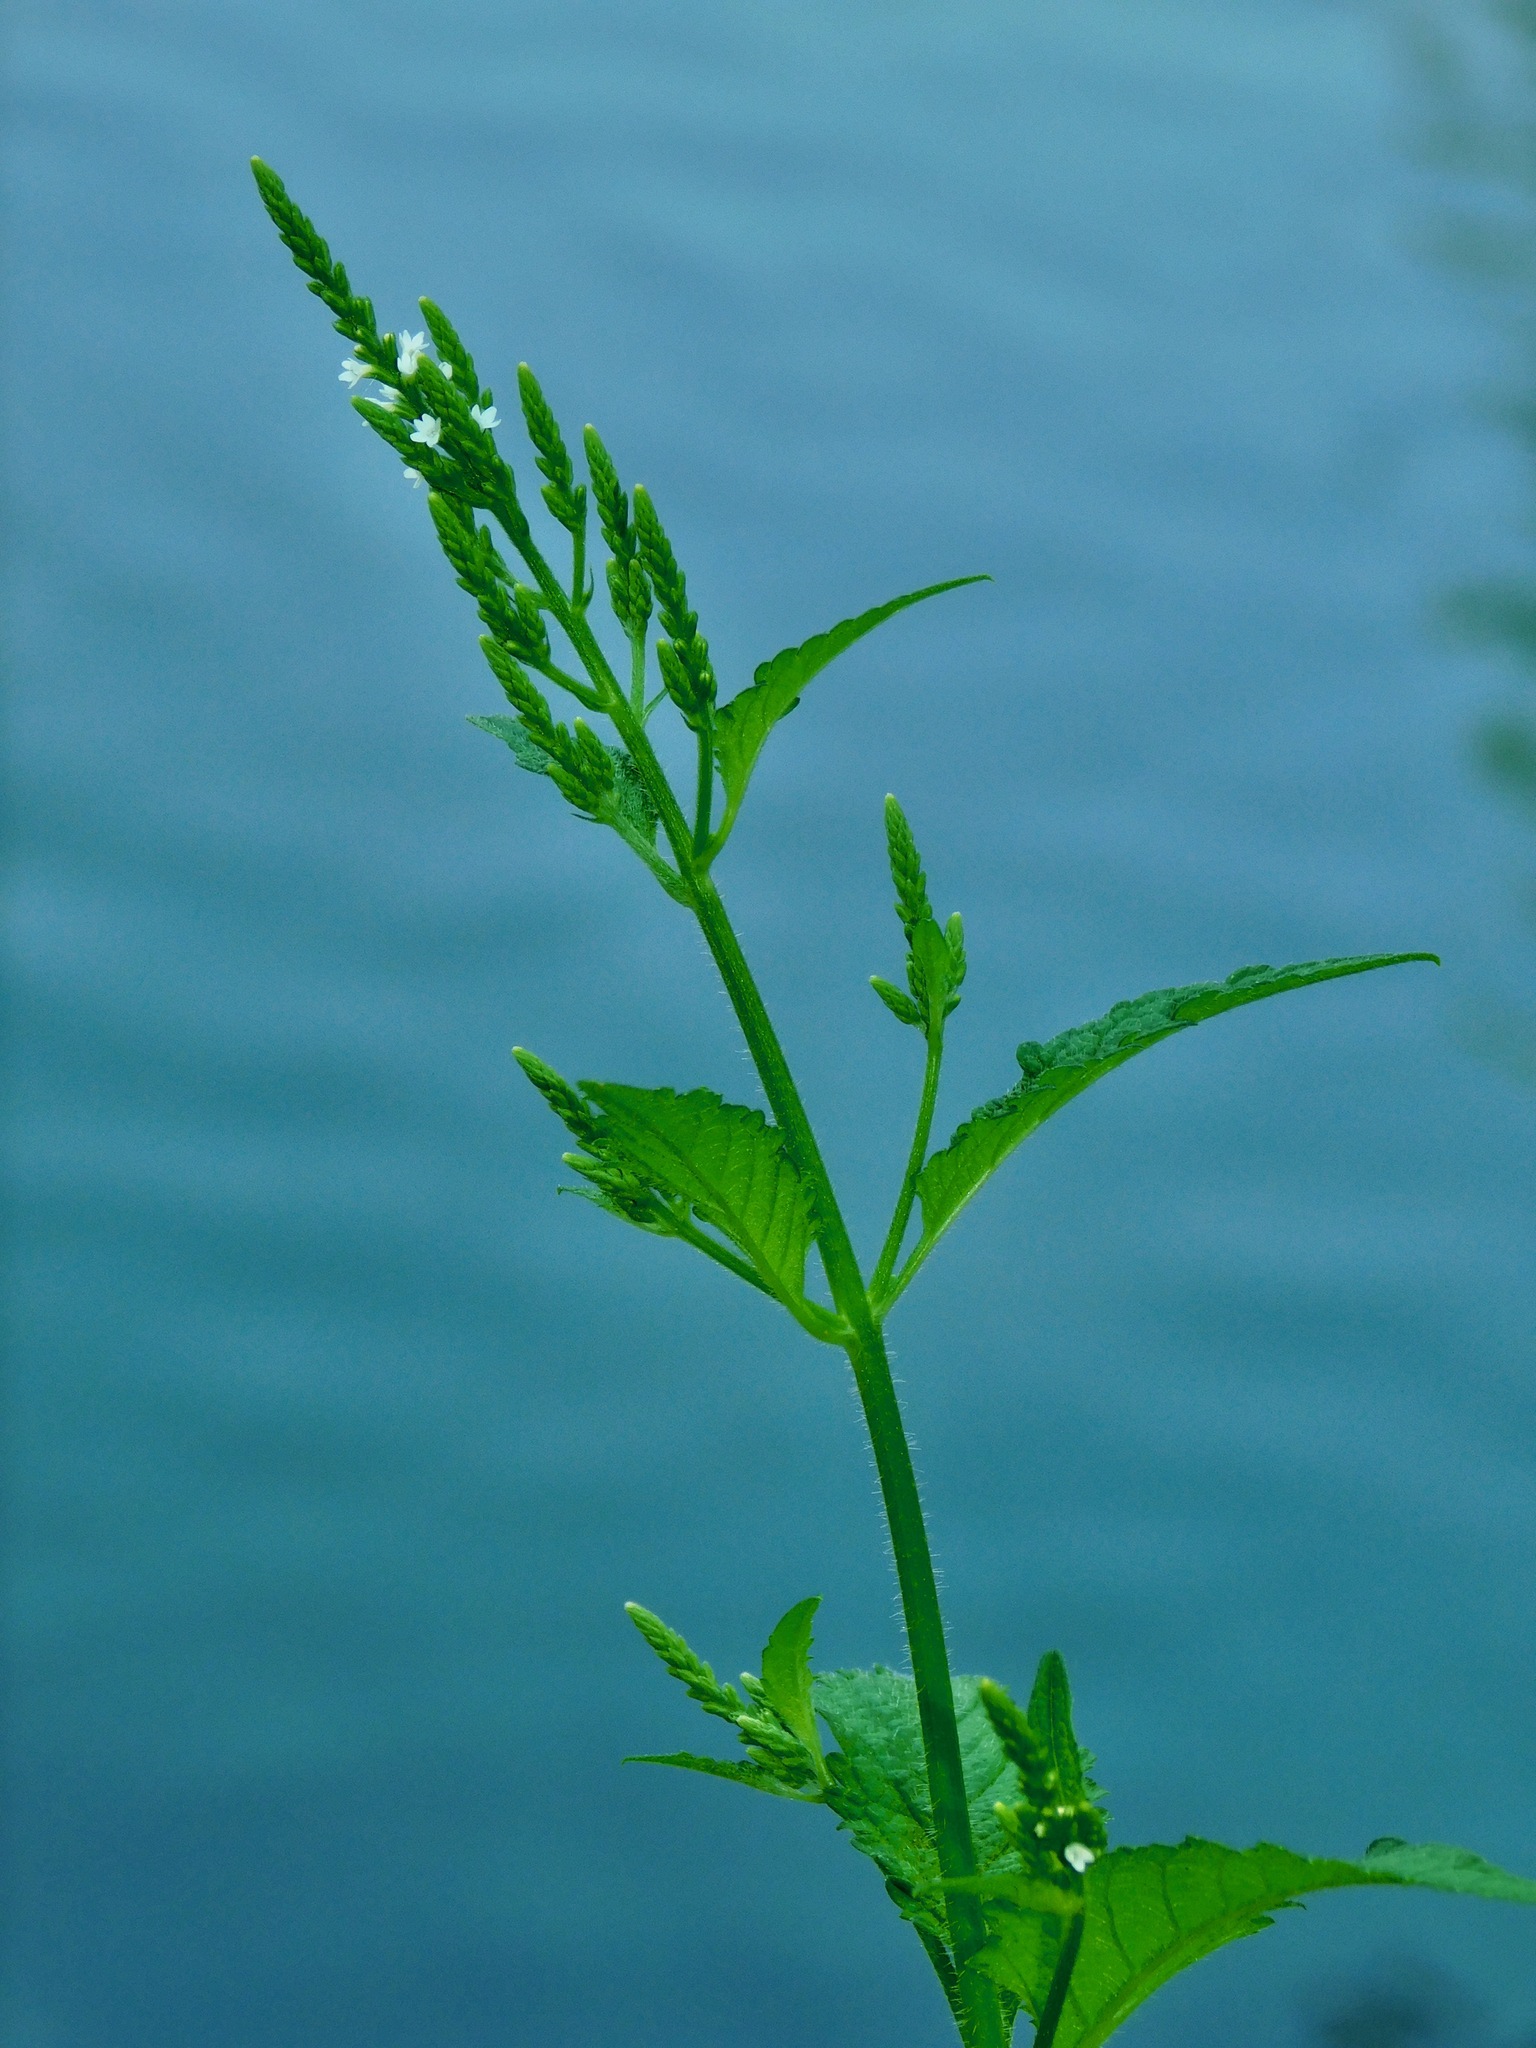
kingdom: Plantae
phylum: Tracheophyta
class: Magnoliopsida
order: Lamiales
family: Verbenaceae
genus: Verbena
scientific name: Verbena urticifolia
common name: Nettle-leaved vervain
